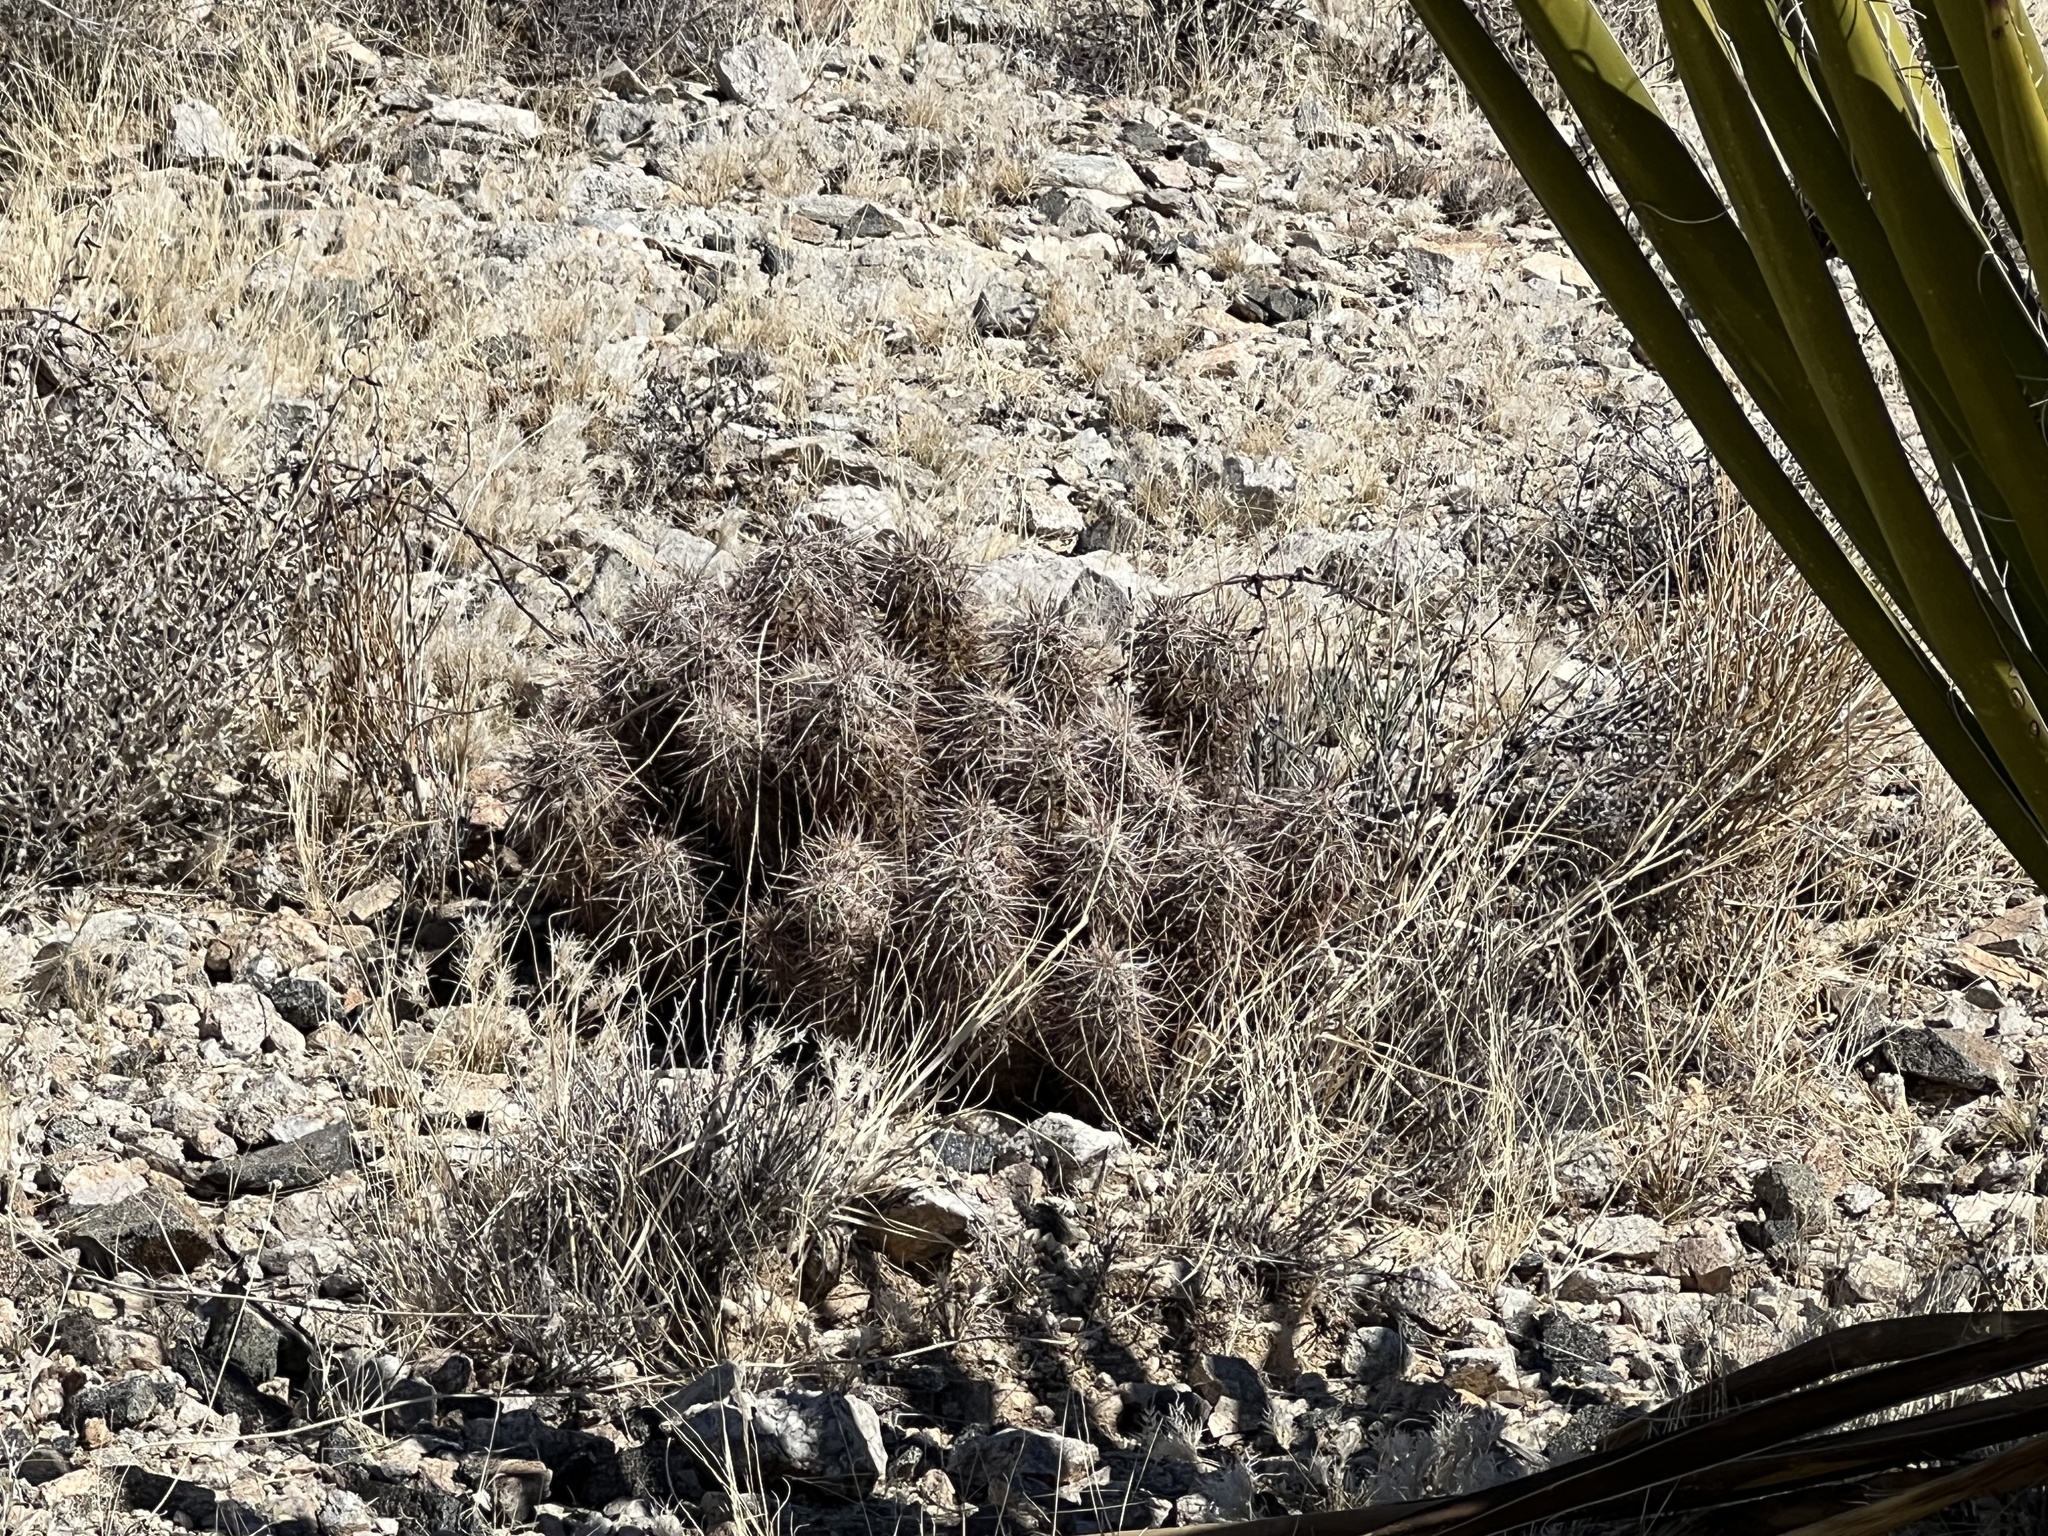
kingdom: Plantae
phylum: Tracheophyta
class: Magnoliopsida
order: Caryophyllales
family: Cactaceae
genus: Echinocereus
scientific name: Echinocereus engelmannii
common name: Engelmann's hedgehog cactus
